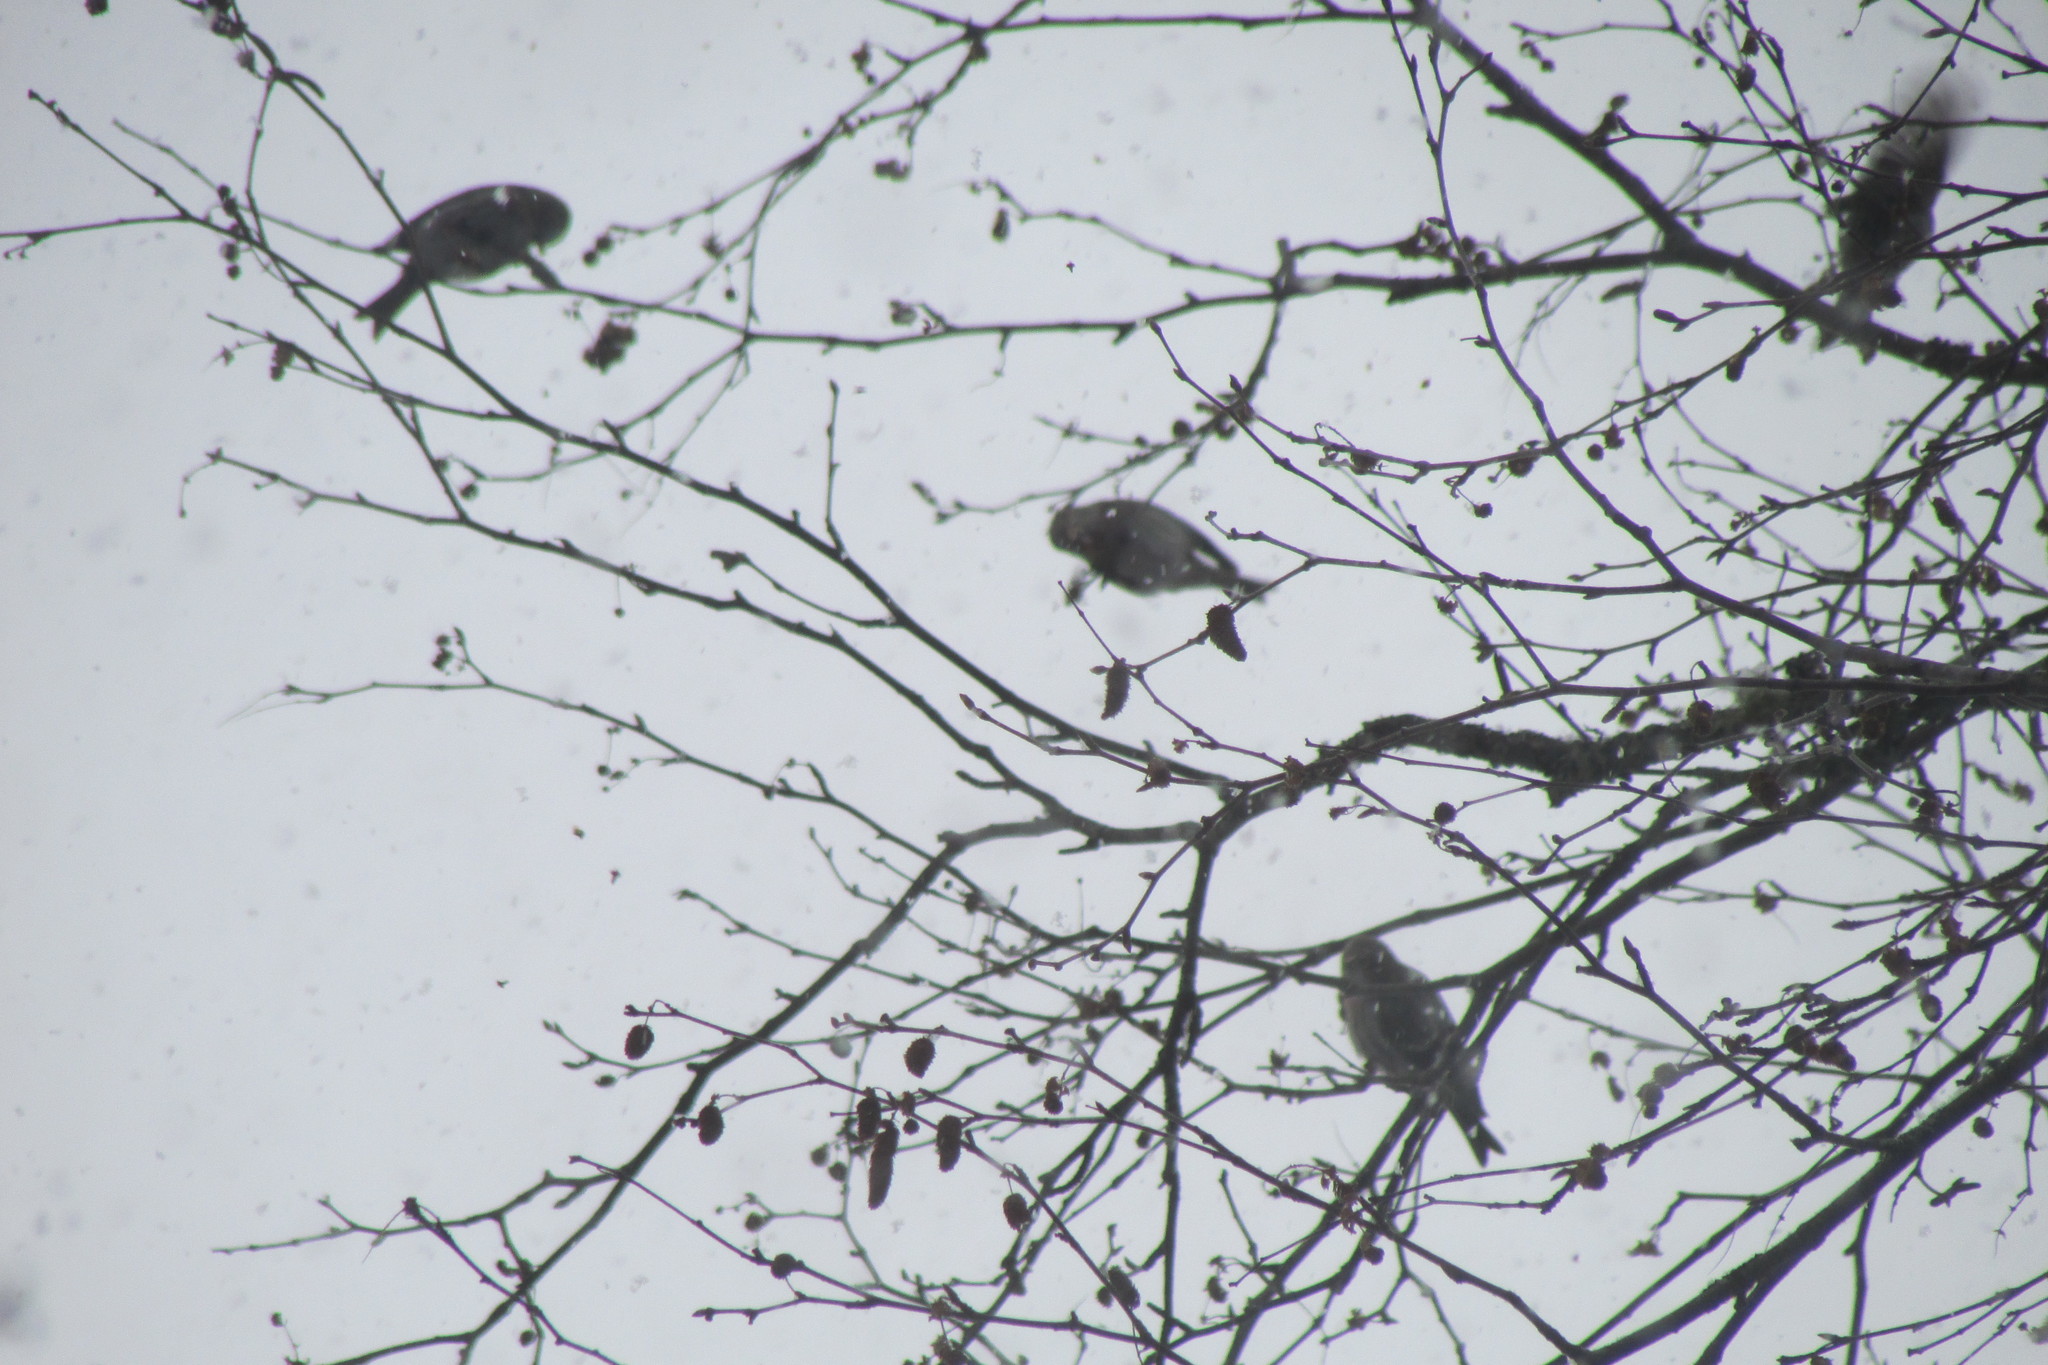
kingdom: Animalia
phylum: Chordata
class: Aves
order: Passeriformes
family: Fringillidae
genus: Acanthis
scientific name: Acanthis flammea
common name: Common redpoll
